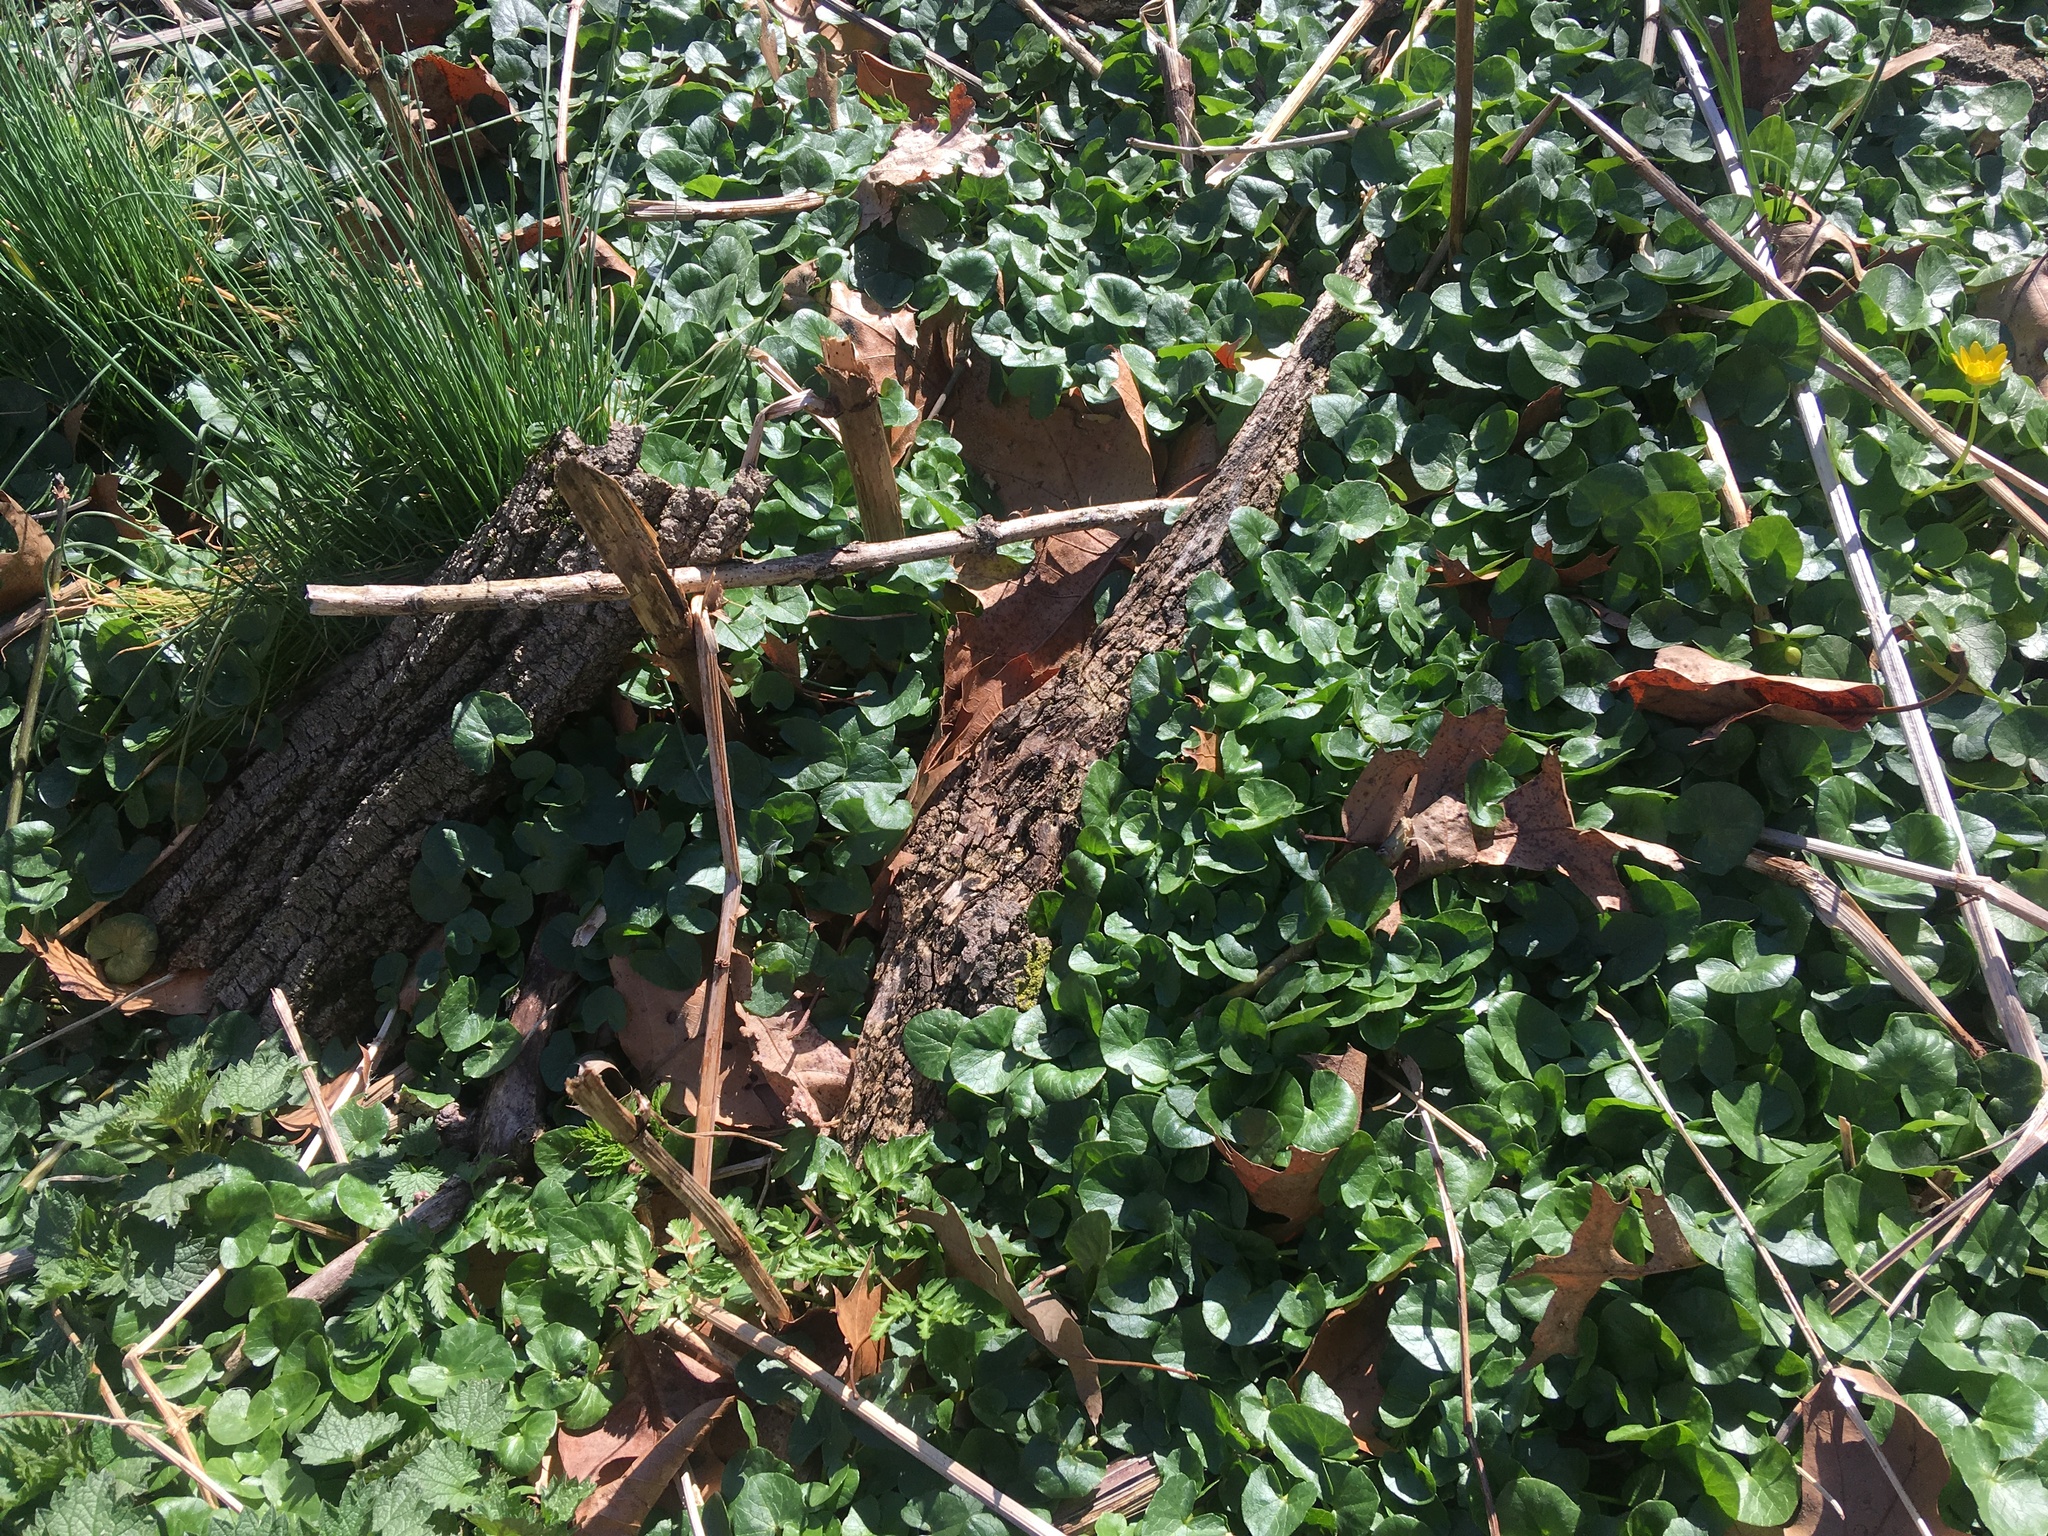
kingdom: Plantae
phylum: Tracheophyta
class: Magnoliopsida
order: Ranunculales
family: Ranunculaceae
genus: Ficaria
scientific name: Ficaria verna
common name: Lesser celandine
